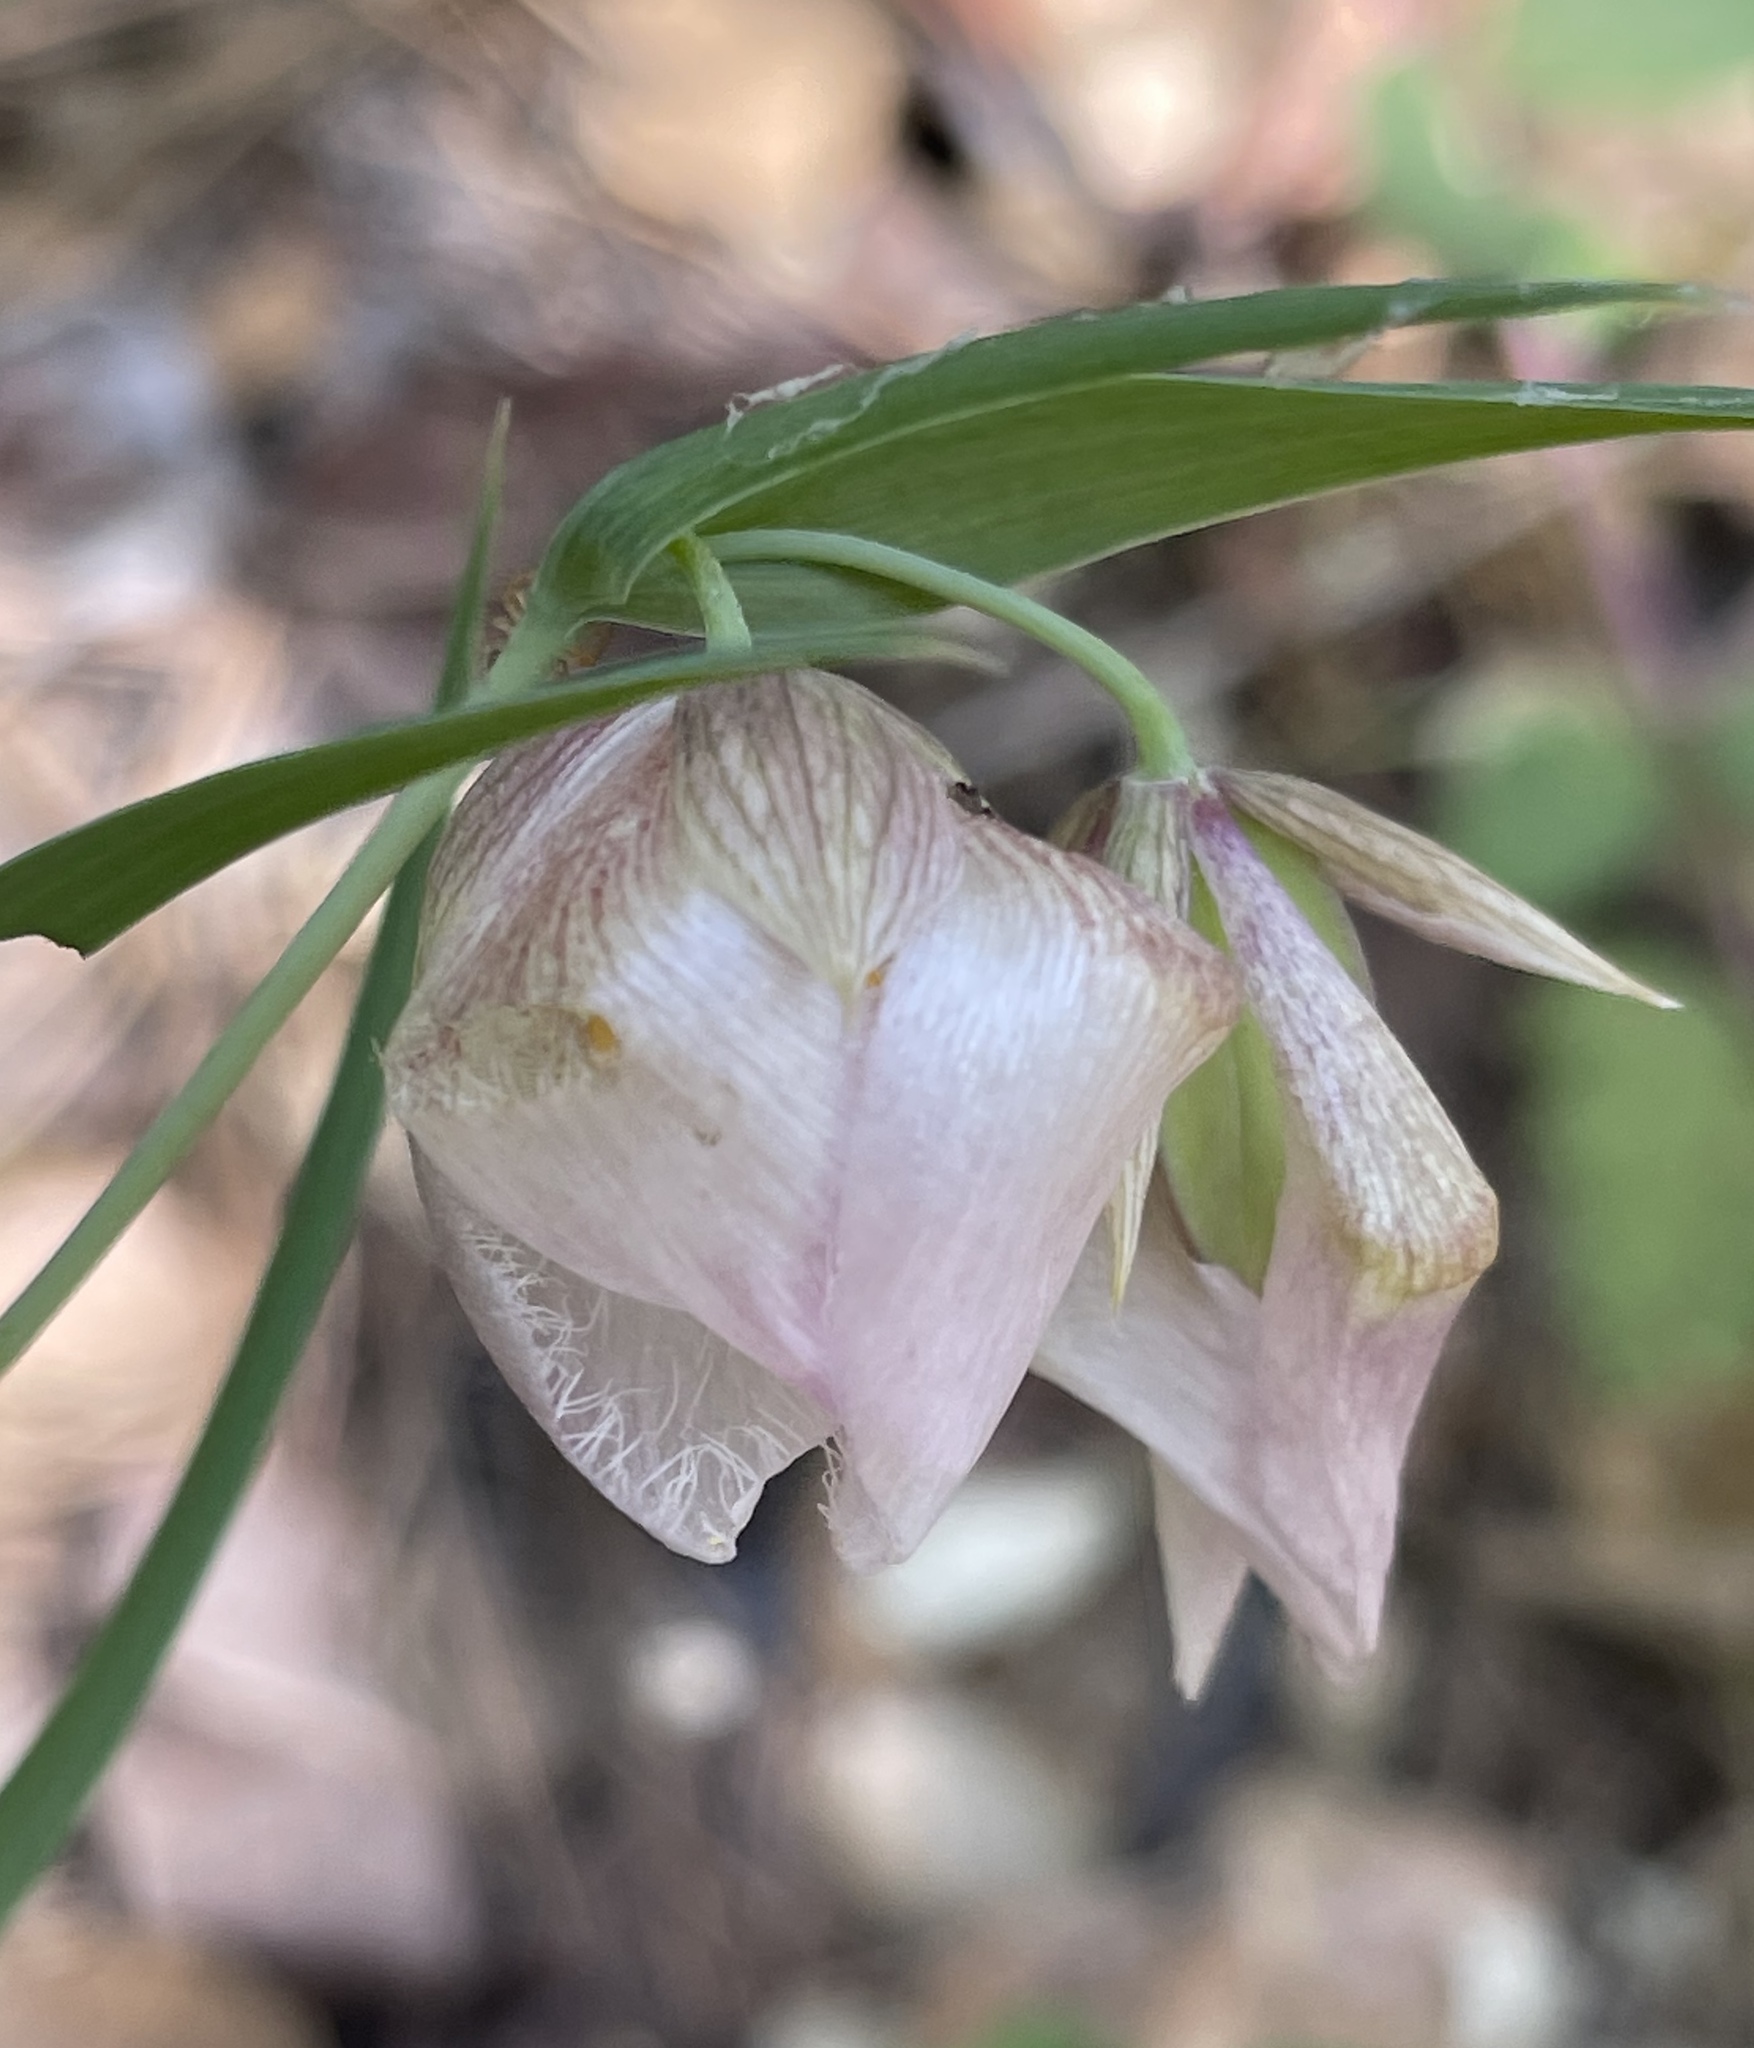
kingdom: Plantae
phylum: Tracheophyta
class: Liliopsida
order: Liliales
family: Liliaceae
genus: Calochortus
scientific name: Calochortus albus
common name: Fairy-lantern
